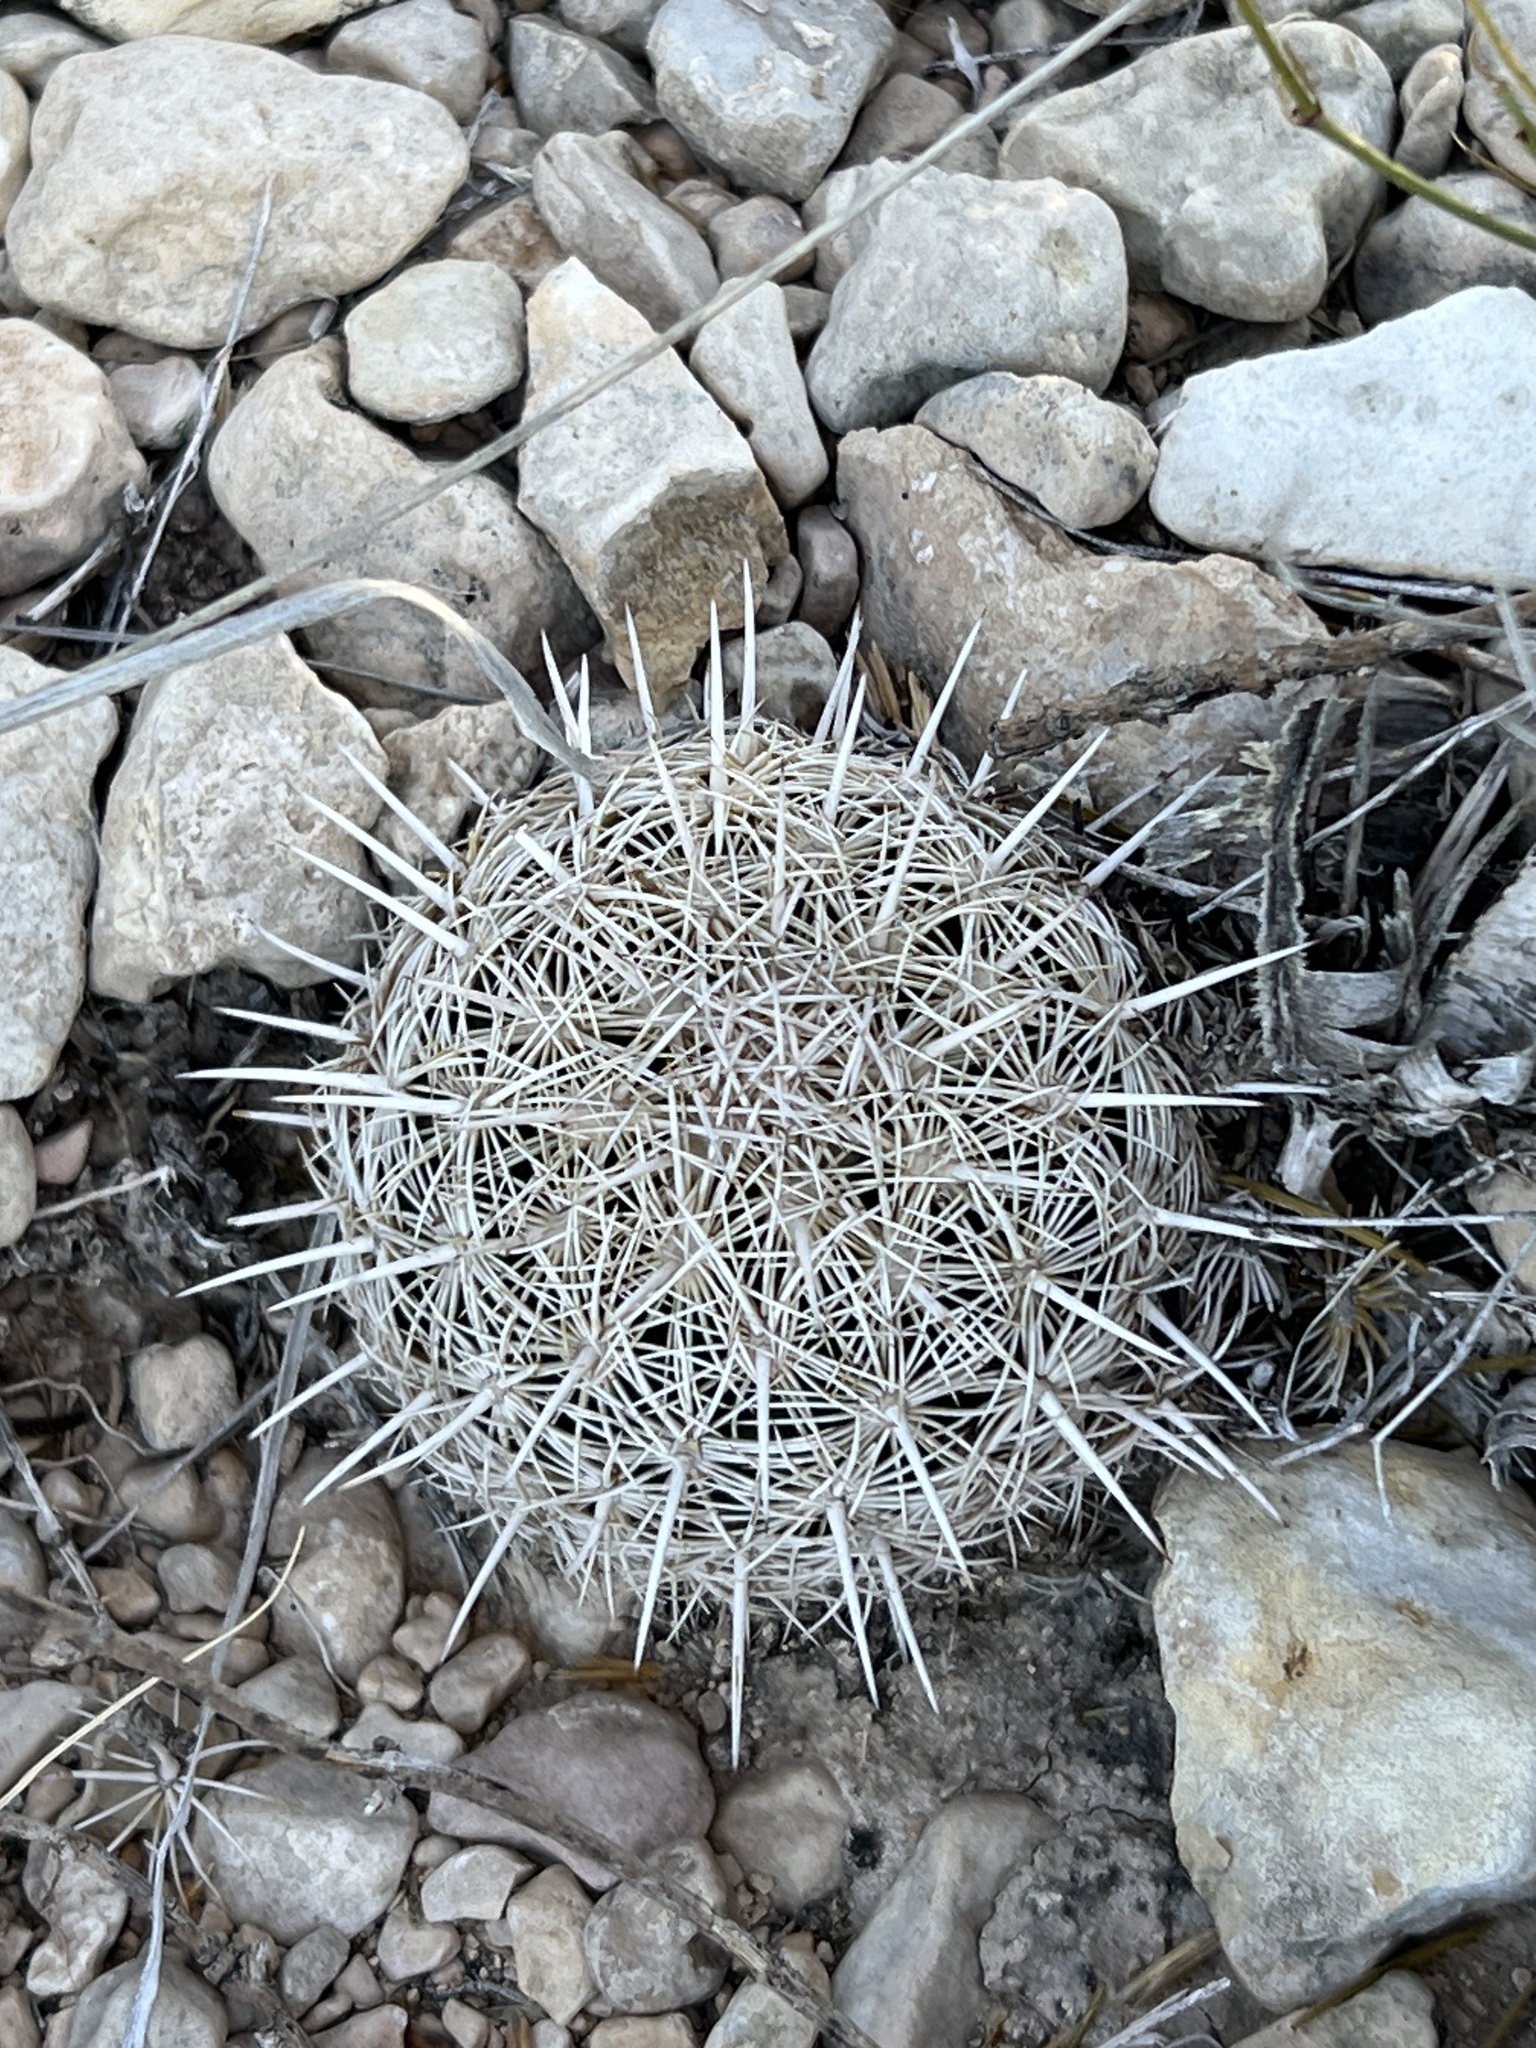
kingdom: Plantae
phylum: Tracheophyta
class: Magnoliopsida
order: Caryophyllales
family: Cactaceae
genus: Coryphantha
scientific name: Coryphantha echinus
